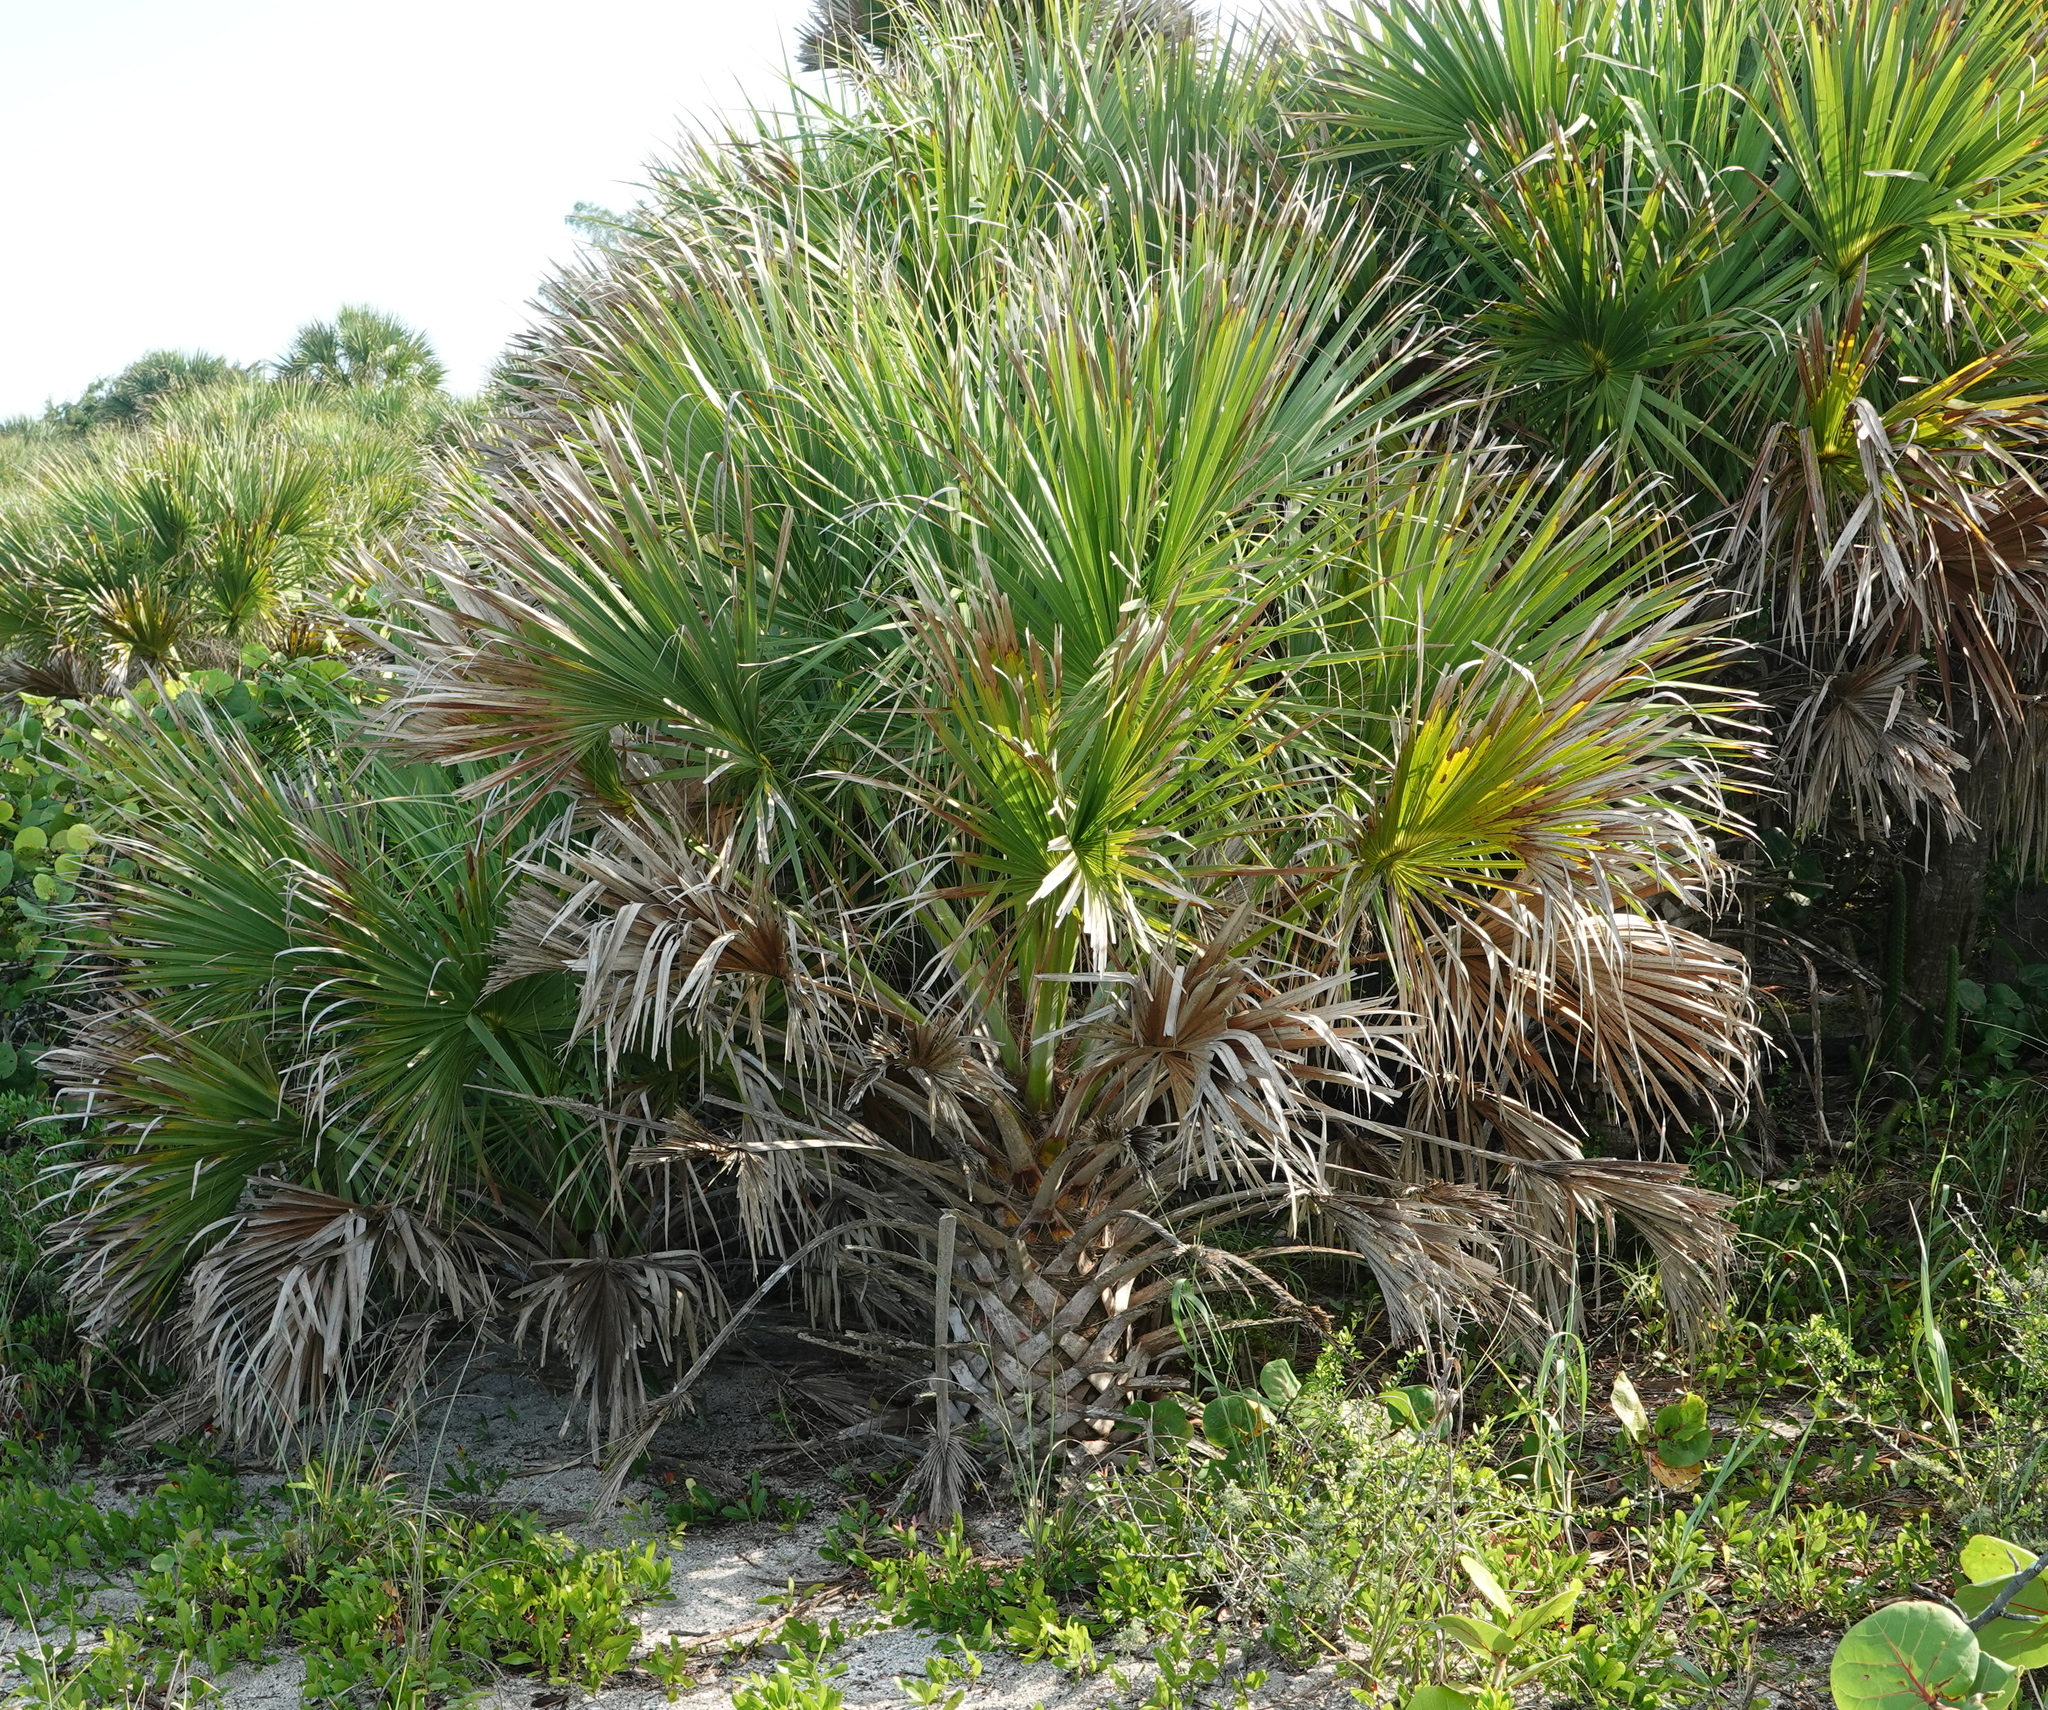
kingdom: Plantae
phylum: Tracheophyta
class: Liliopsida
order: Arecales
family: Arecaceae
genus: Sabal
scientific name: Sabal palmetto
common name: Blue palmetto
